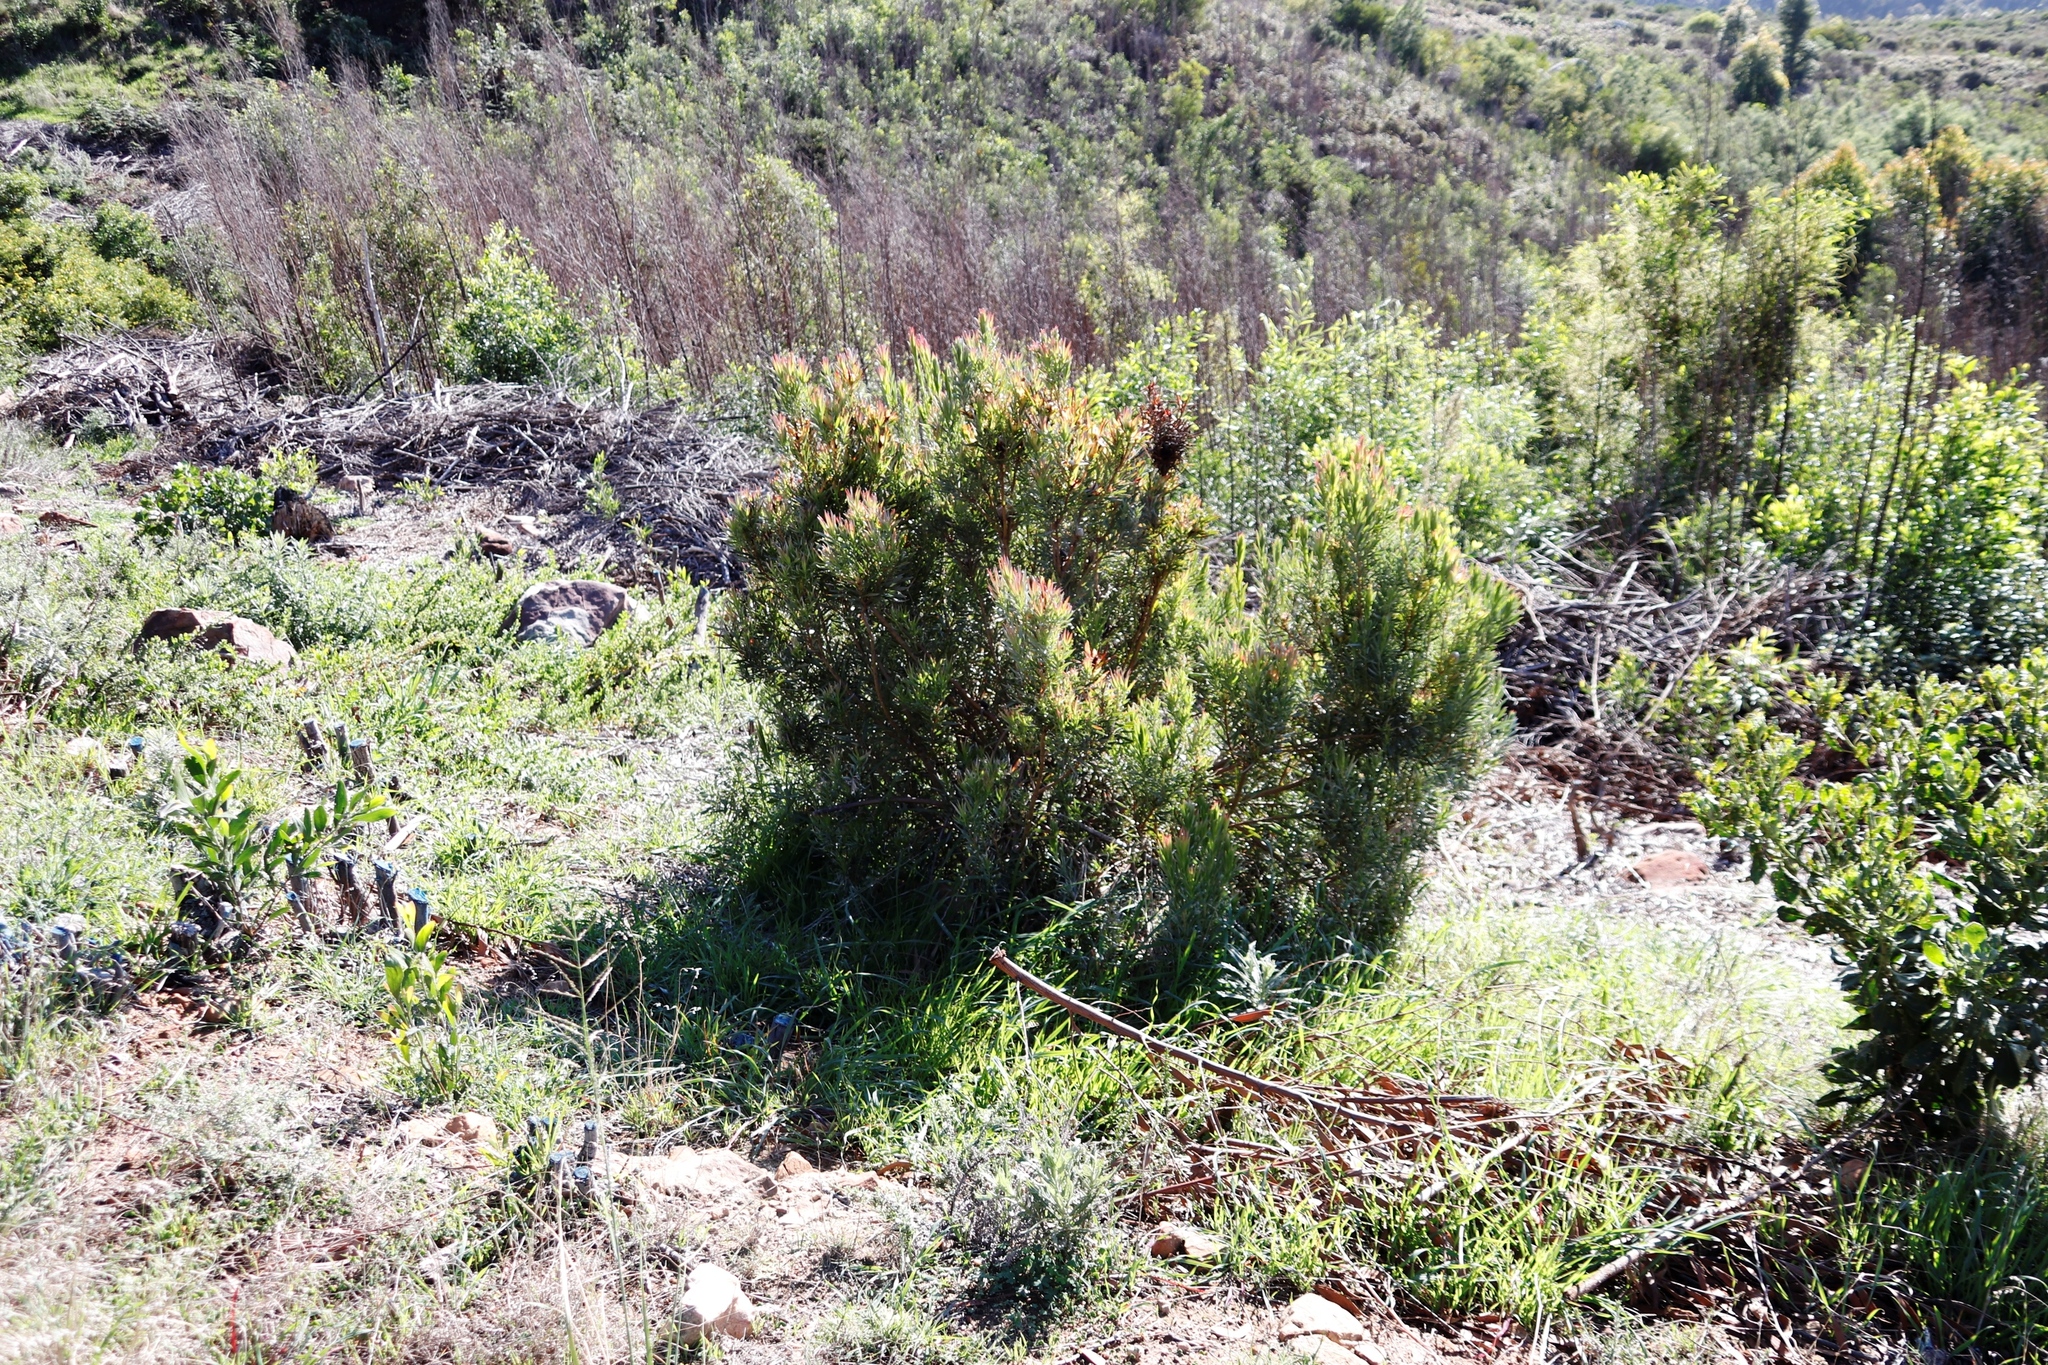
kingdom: Plantae
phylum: Tracheophyta
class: Magnoliopsida
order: Proteales
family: Proteaceae
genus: Leucadendron
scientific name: Leucadendron xanthoconus
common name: Sickle-leaf conebush
